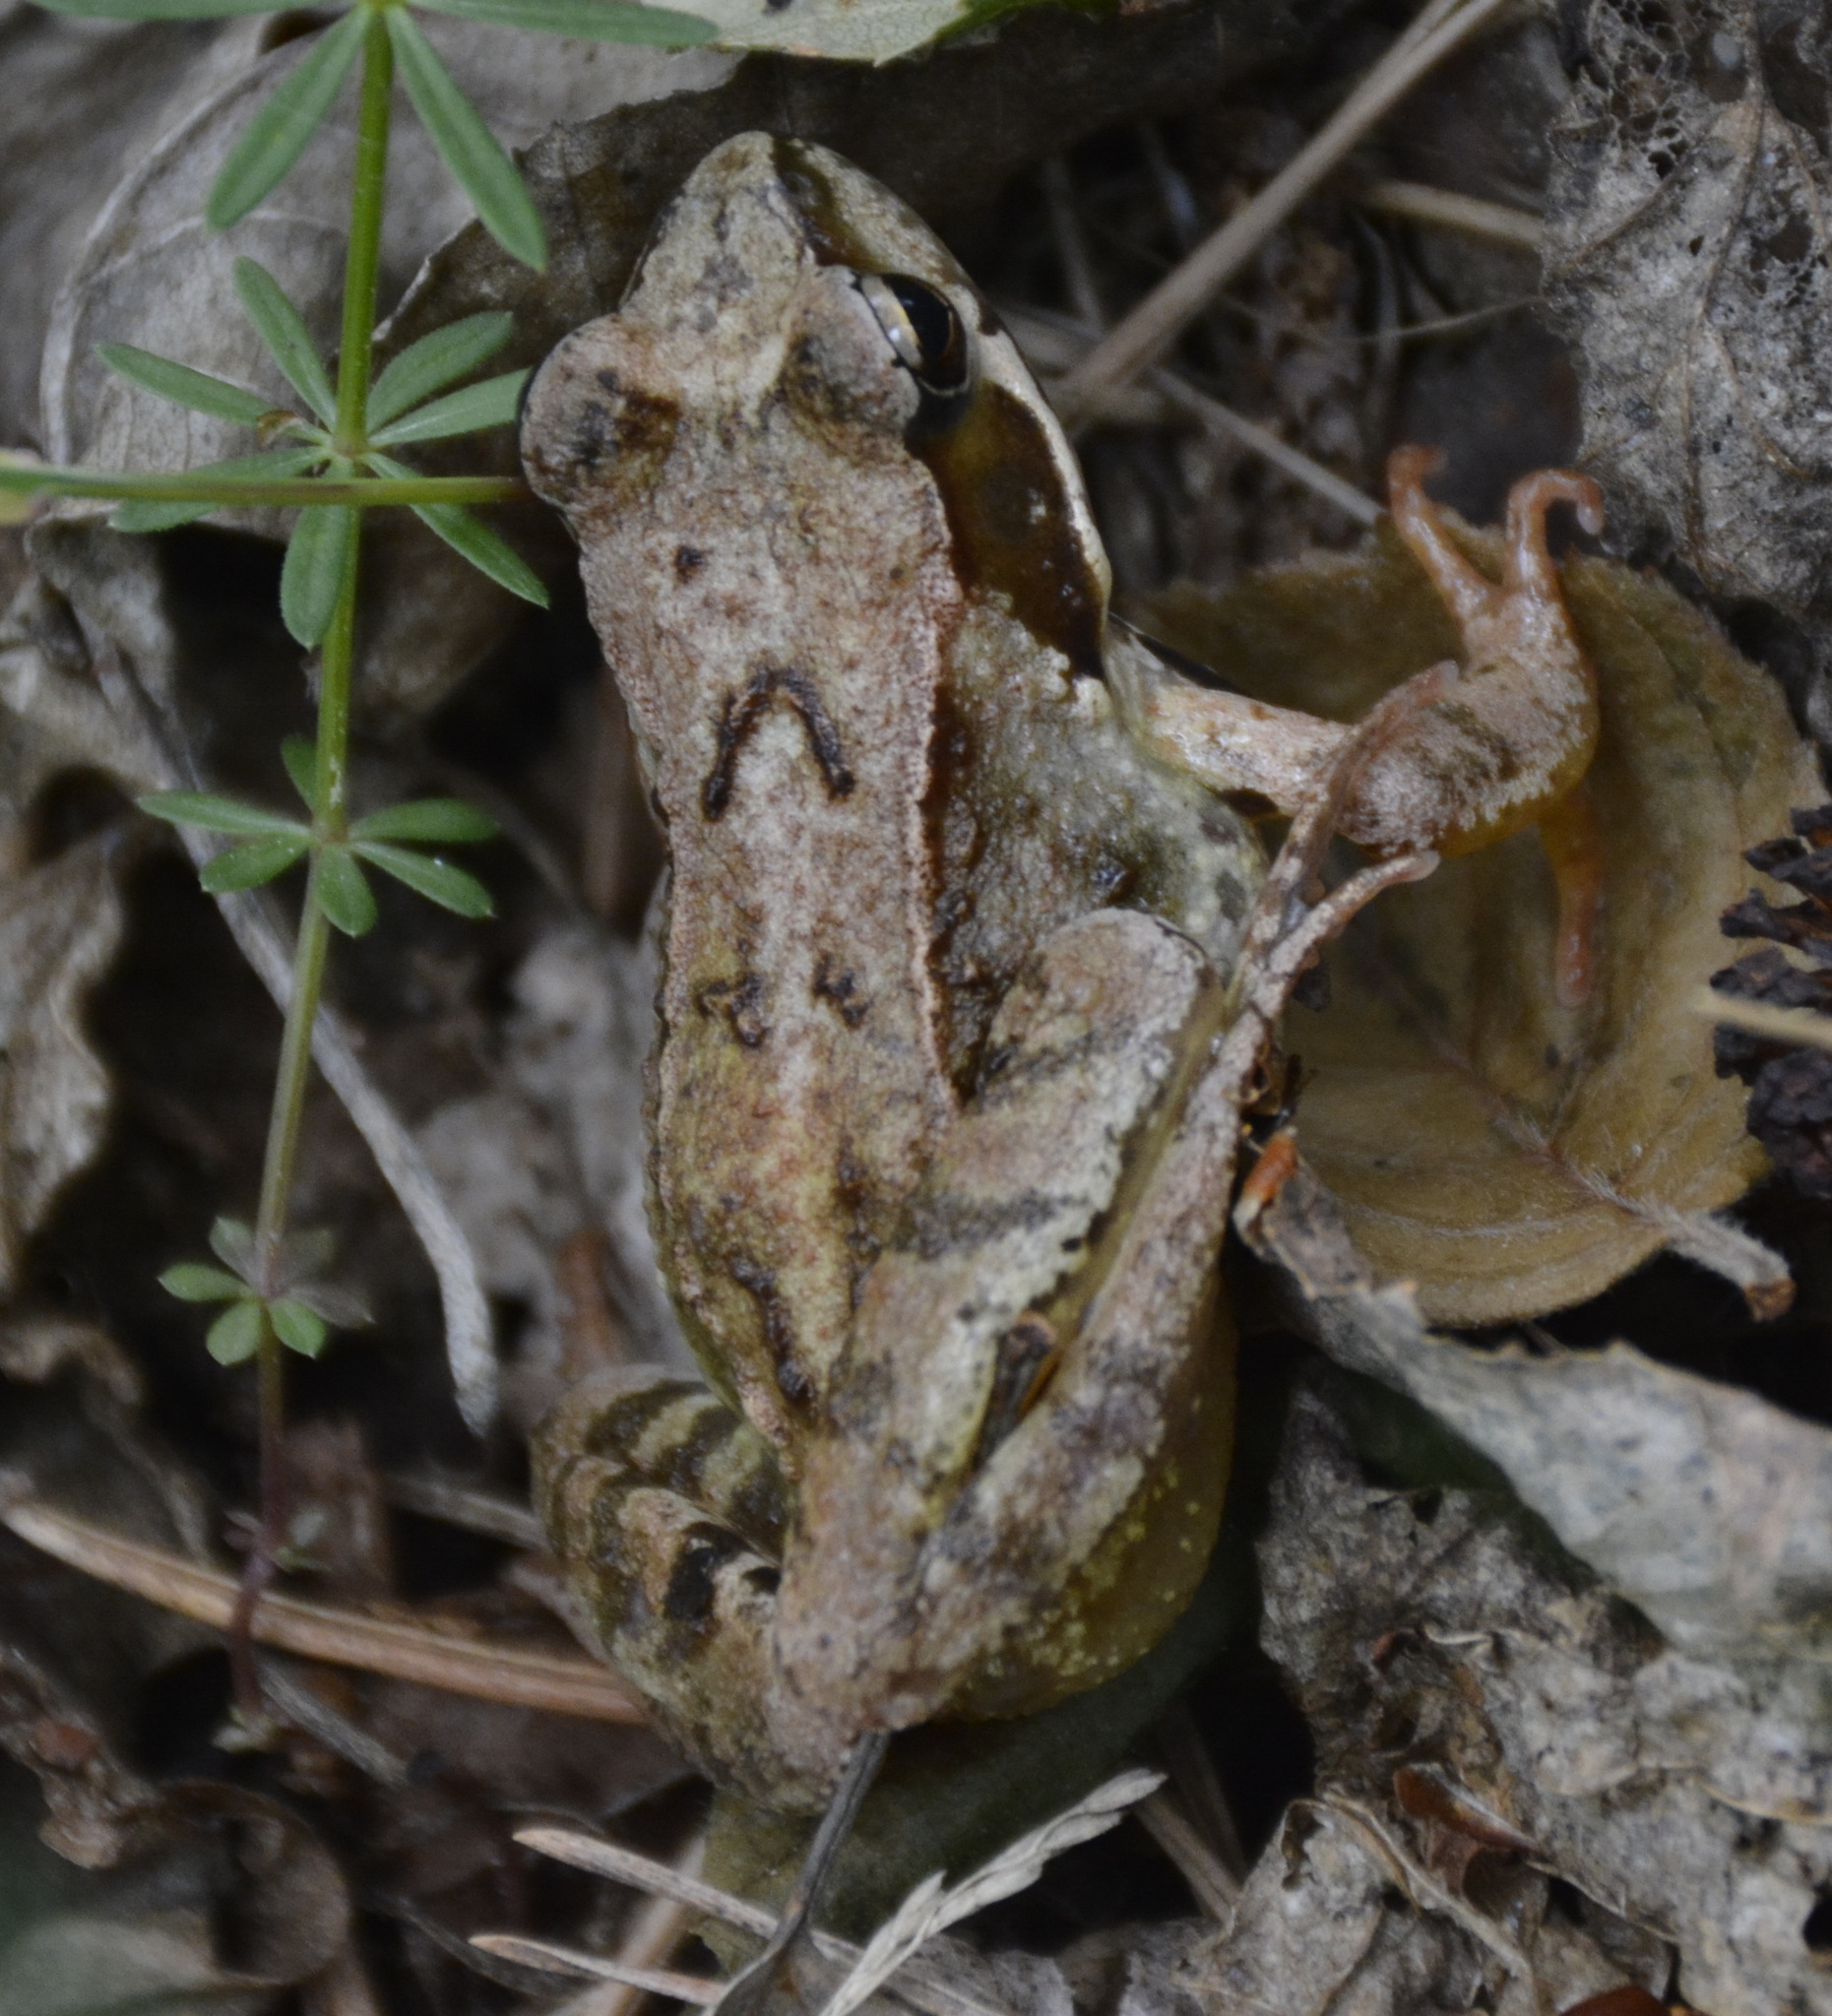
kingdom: Animalia
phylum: Chordata
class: Amphibia
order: Anura
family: Ranidae
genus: Rana
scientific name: Rana temporaria
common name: Common frog
